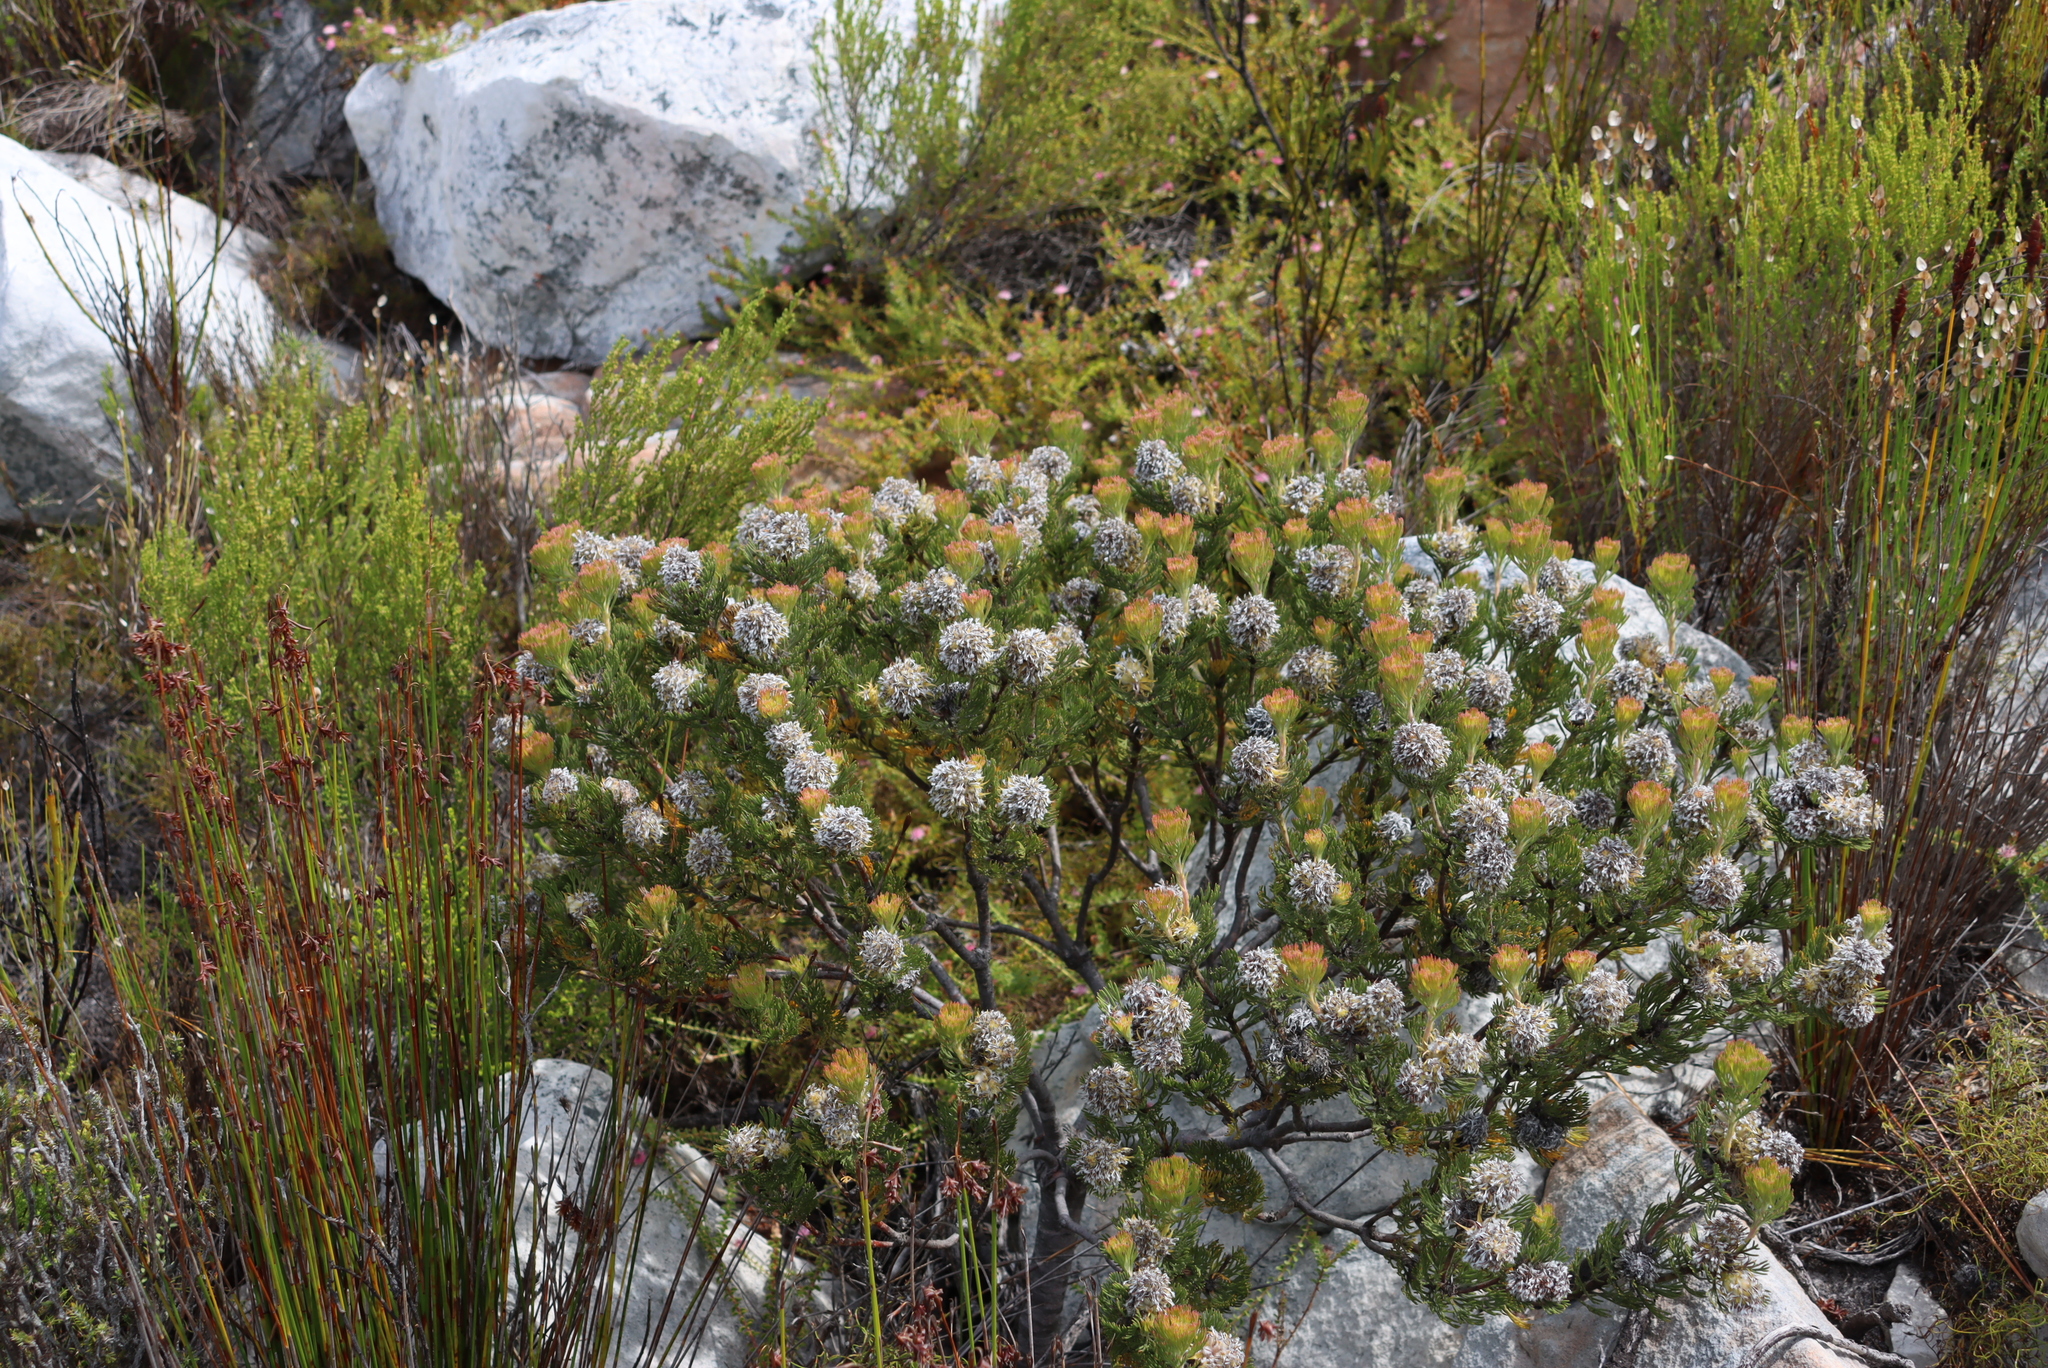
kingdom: Plantae
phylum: Tracheophyta
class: Magnoliopsida
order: Proteales
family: Proteaceae
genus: Serruria
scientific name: Serruria villosa
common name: Golden spiderhead
